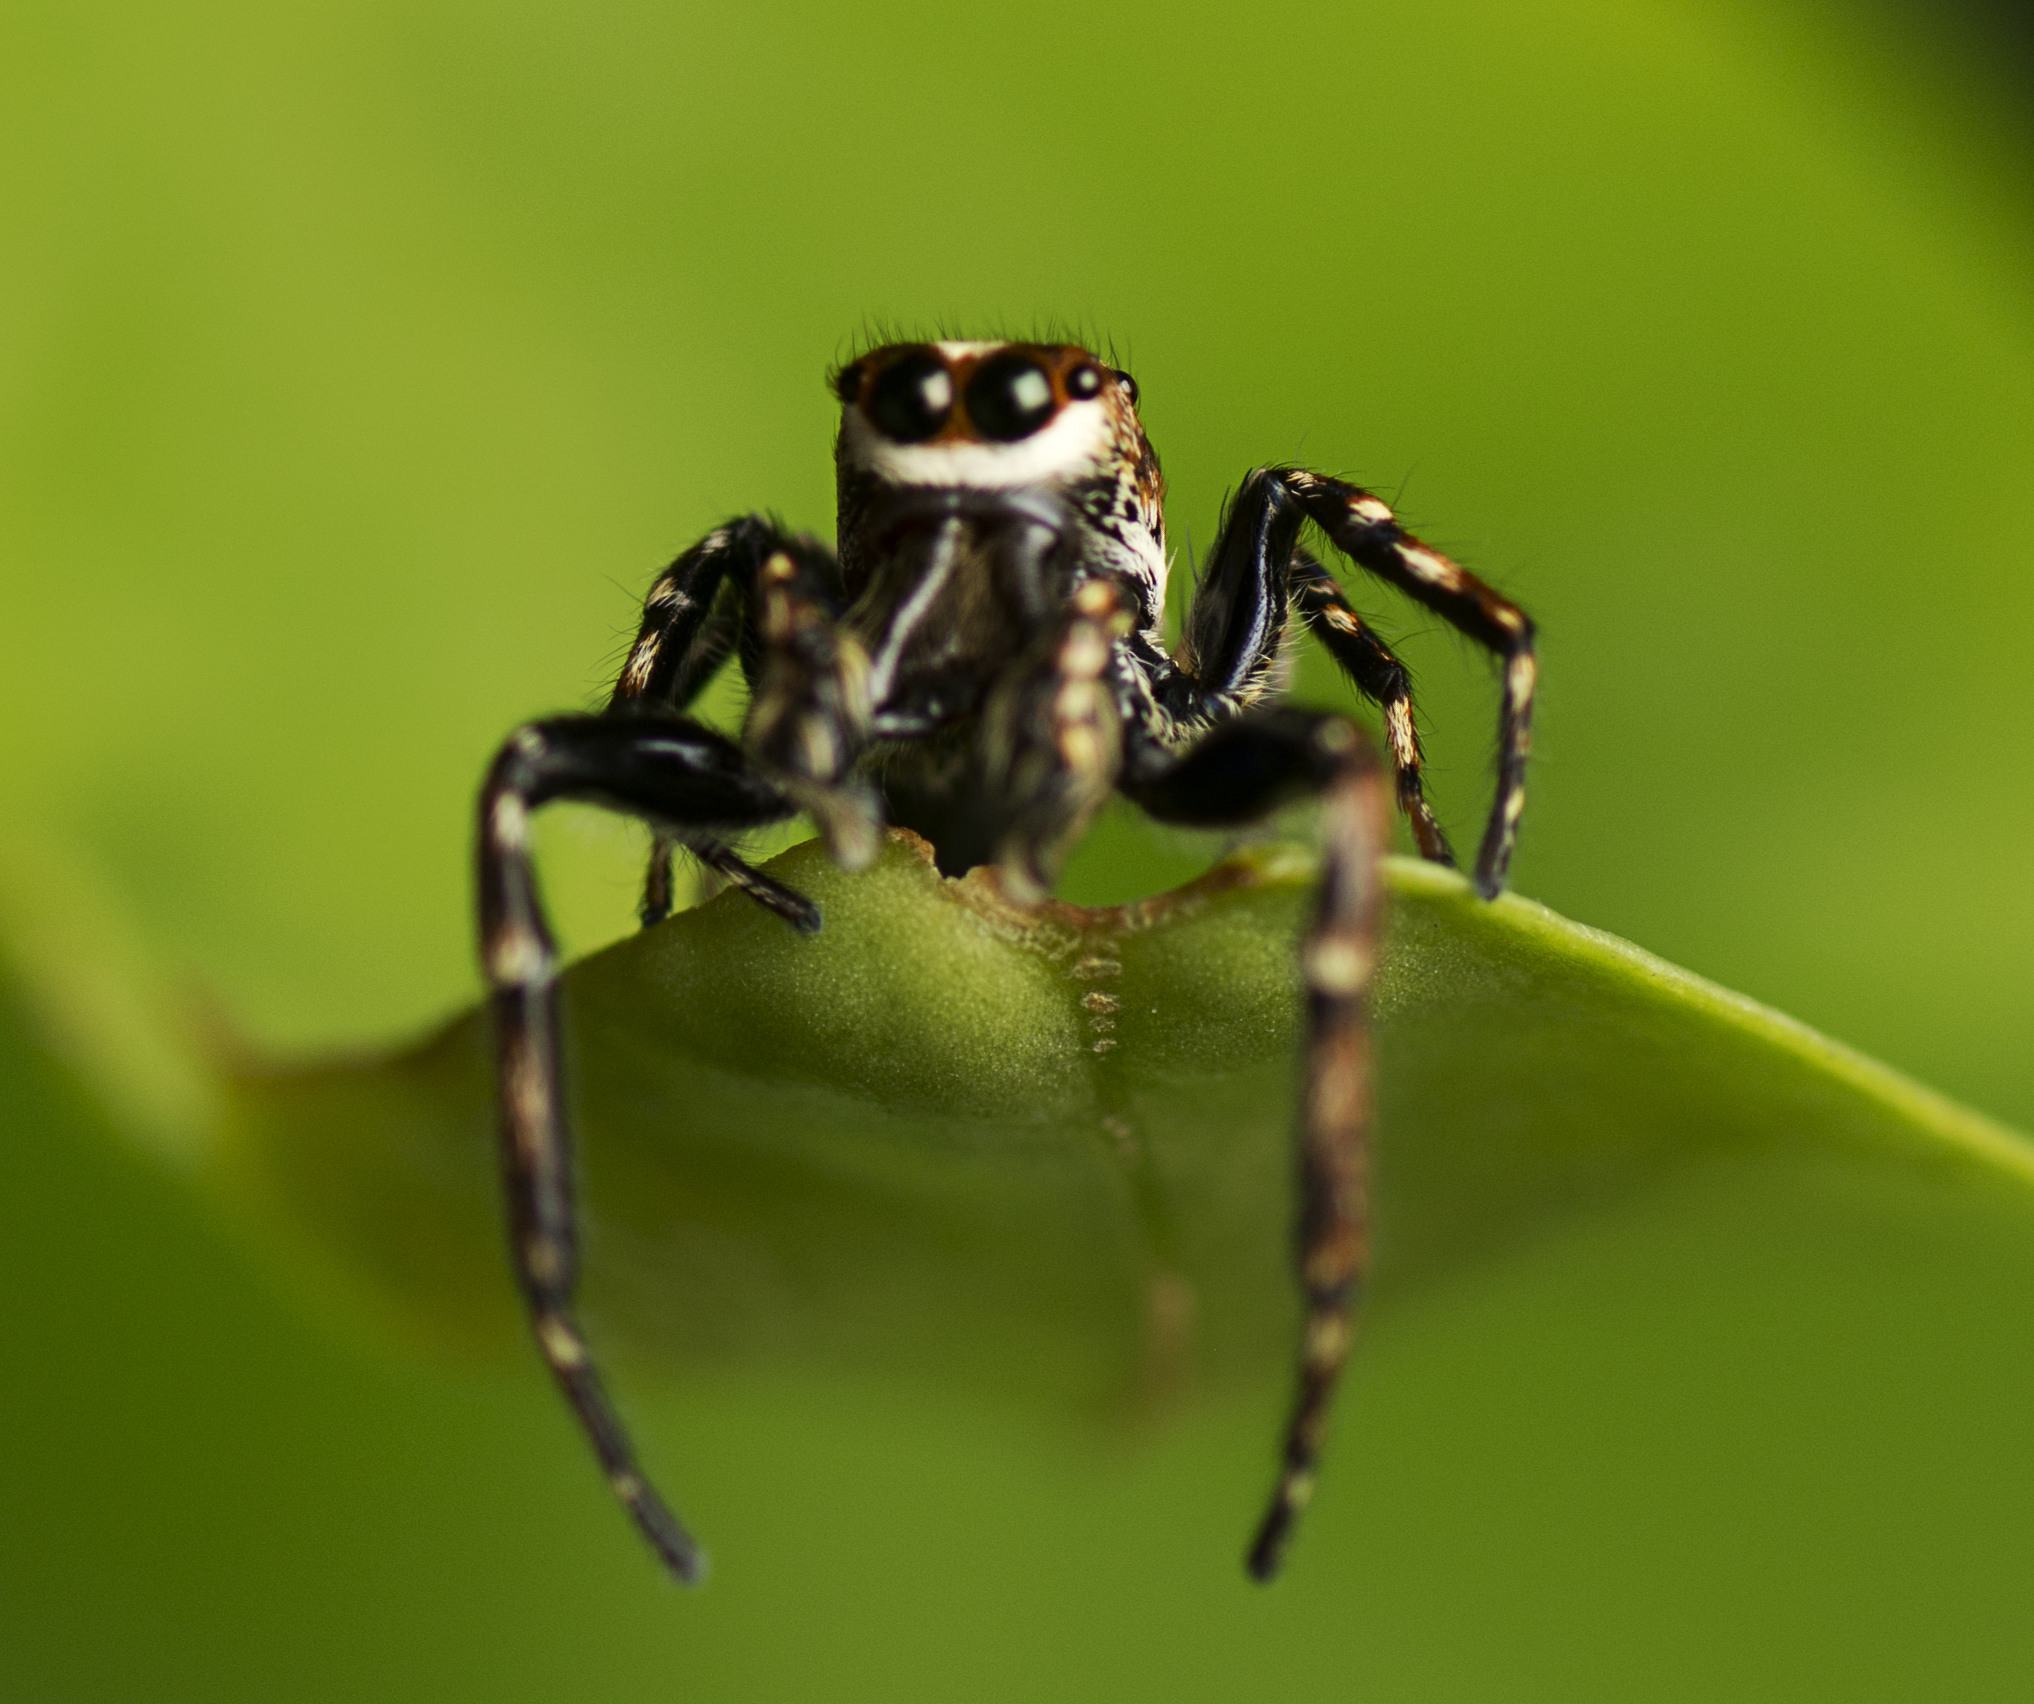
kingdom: Animalia
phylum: Arthropoda
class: Arachnida
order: Araneae
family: Salticidae
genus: Paraphilaeus
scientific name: Paraphilaeus daemeli
